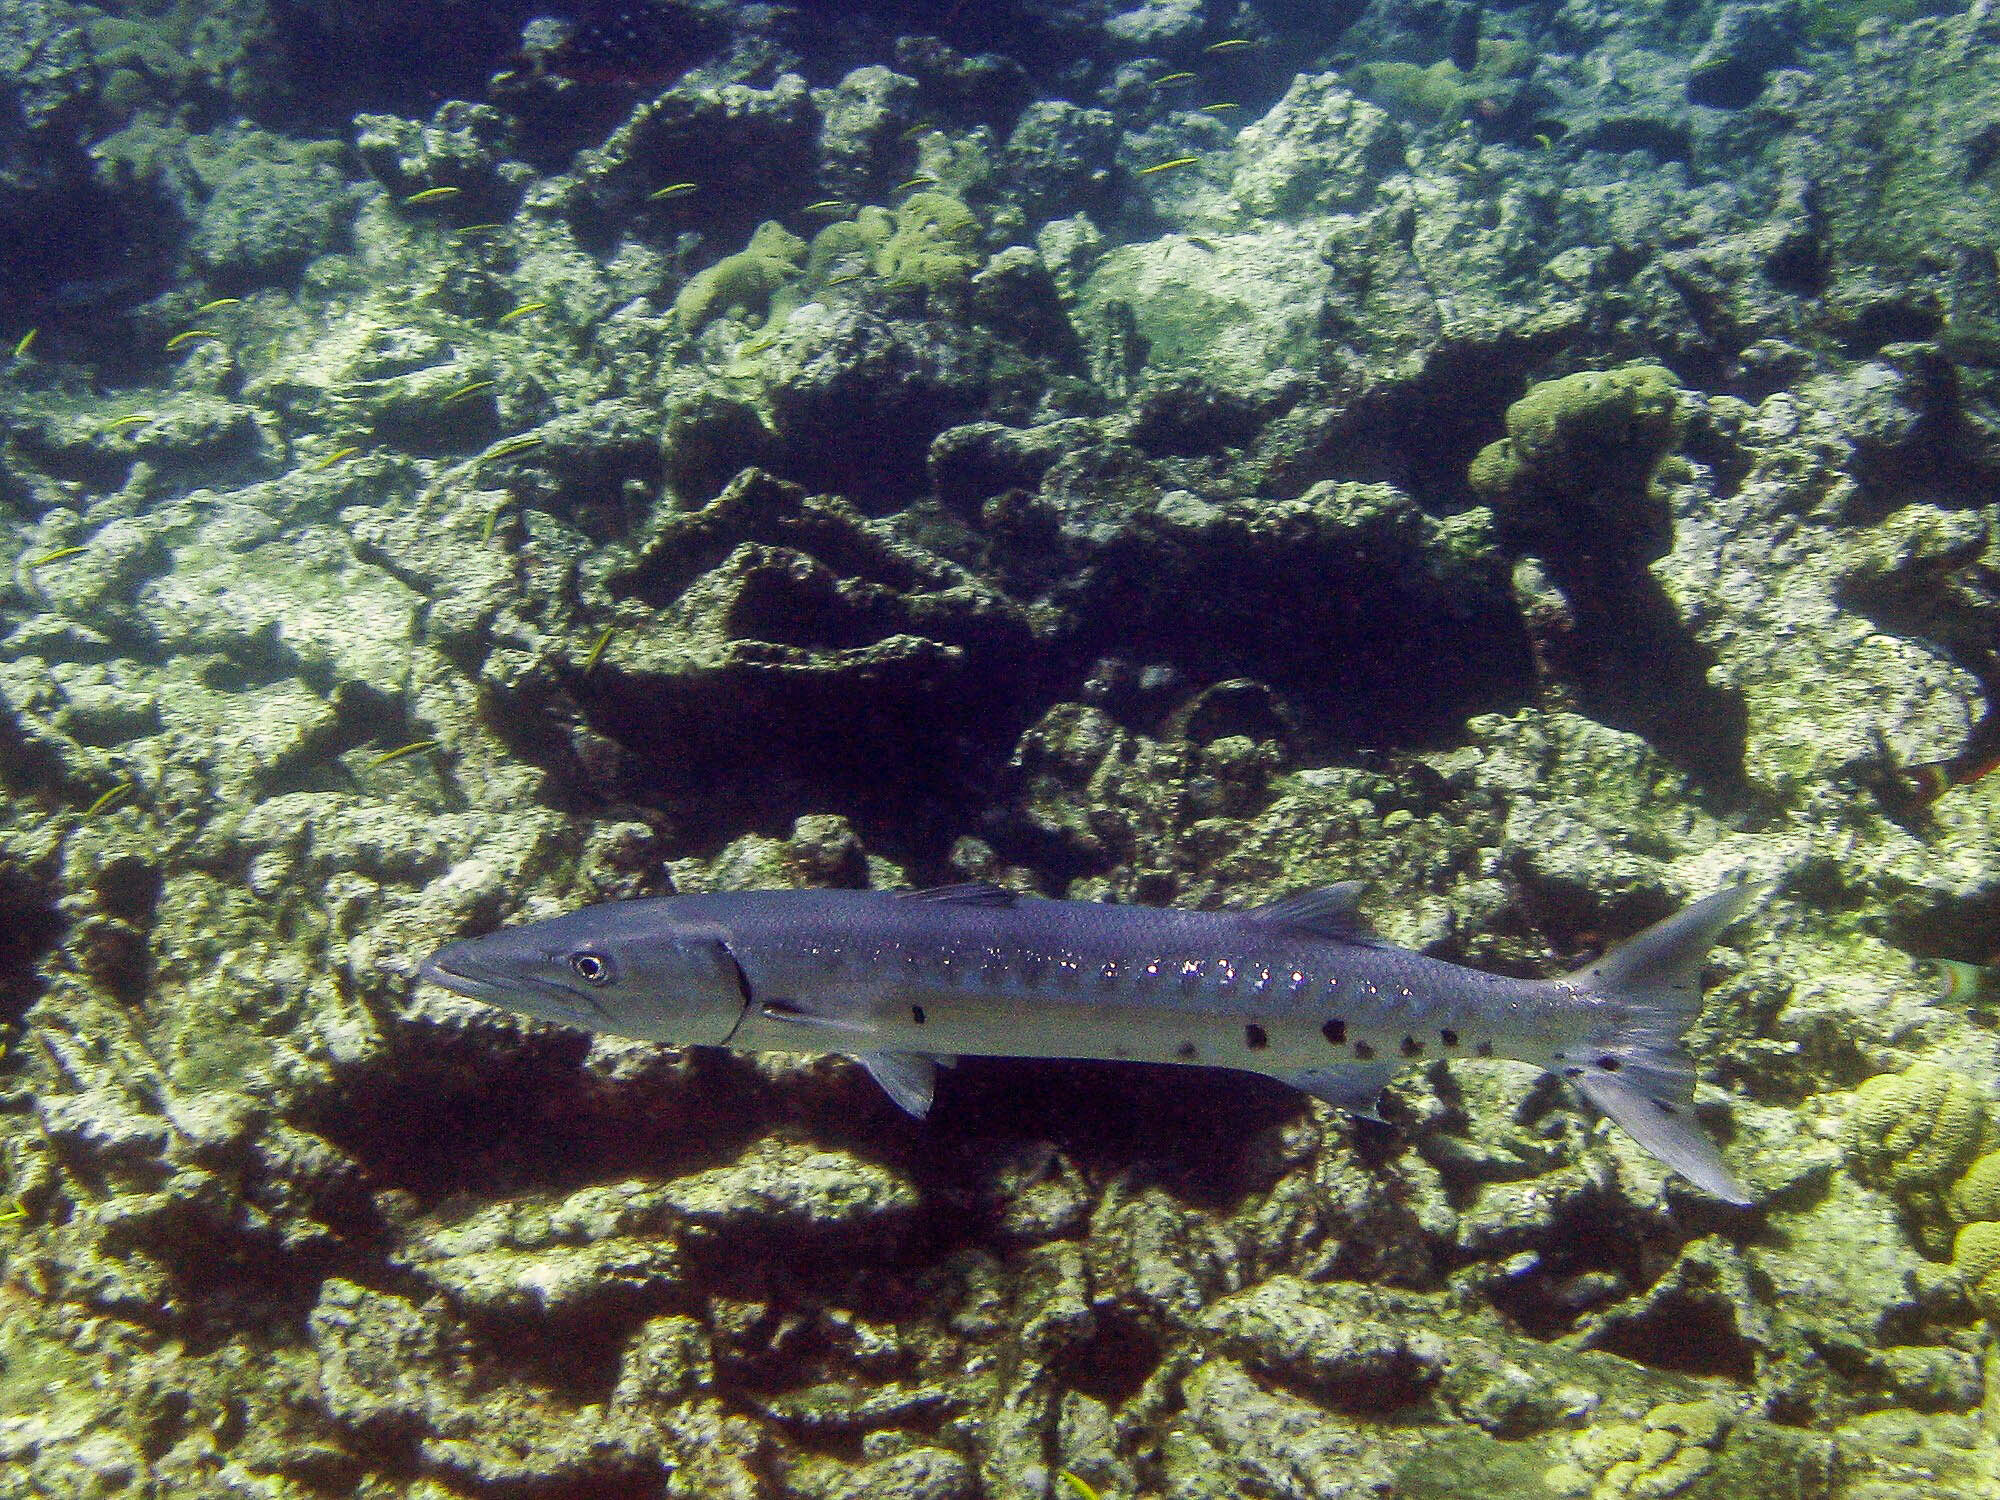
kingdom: Animalia
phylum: Chordata
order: Perciformes
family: Sphyraenidae
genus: Sphyraena
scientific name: Sphyraena barracuda
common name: Great barracuda
